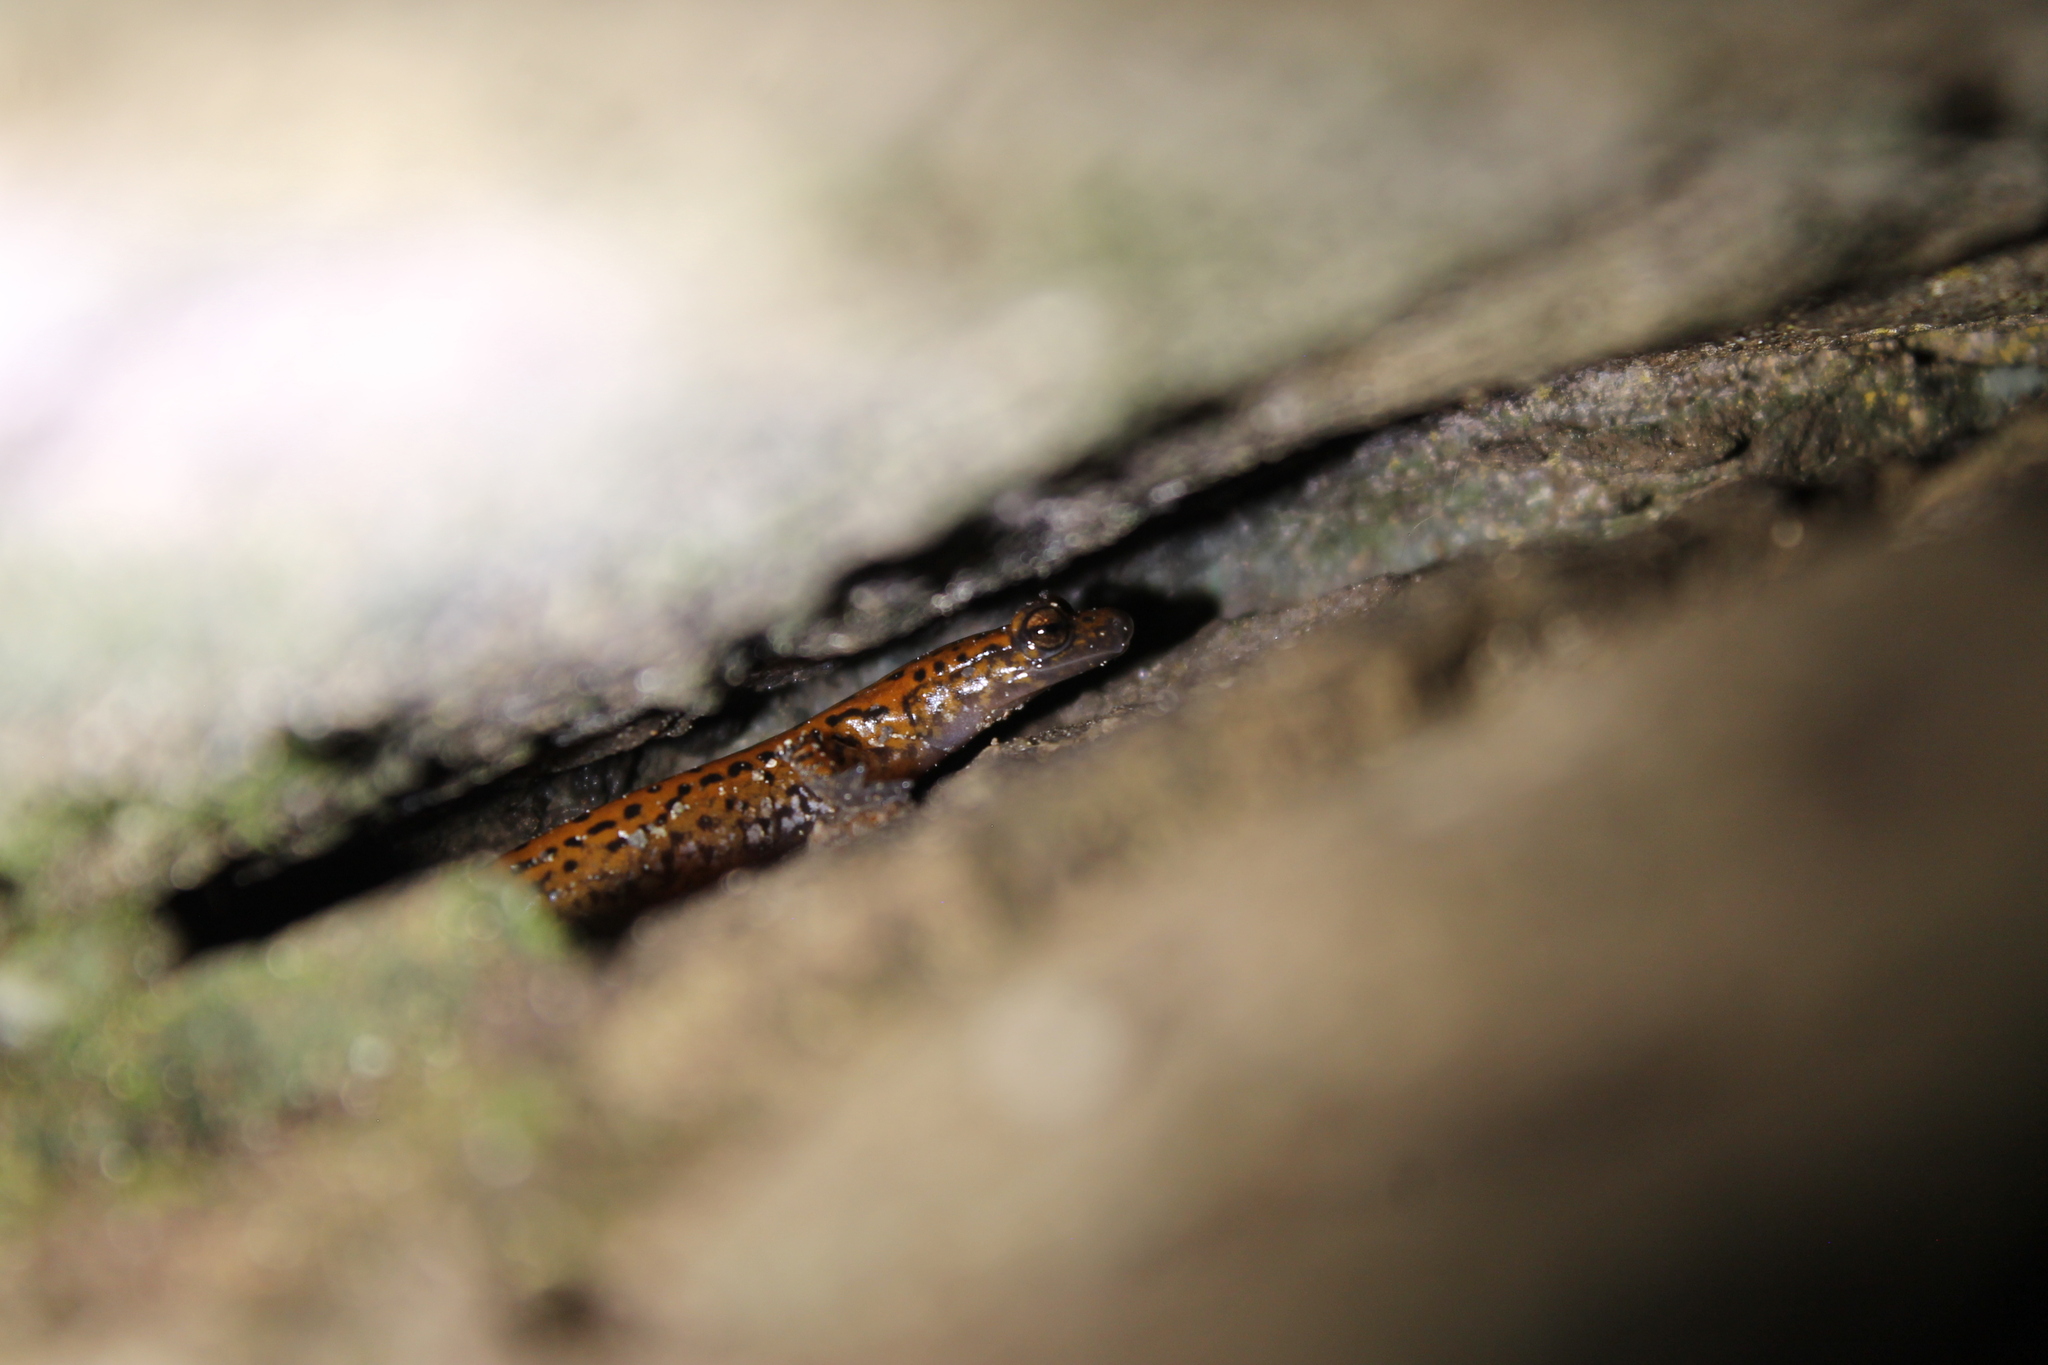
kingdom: Animalia
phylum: Chordata
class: Amphibia
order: Caudata
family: Plethodontidae
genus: Eurycea
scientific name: Eurycea lucifuga
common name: Cave salamander
